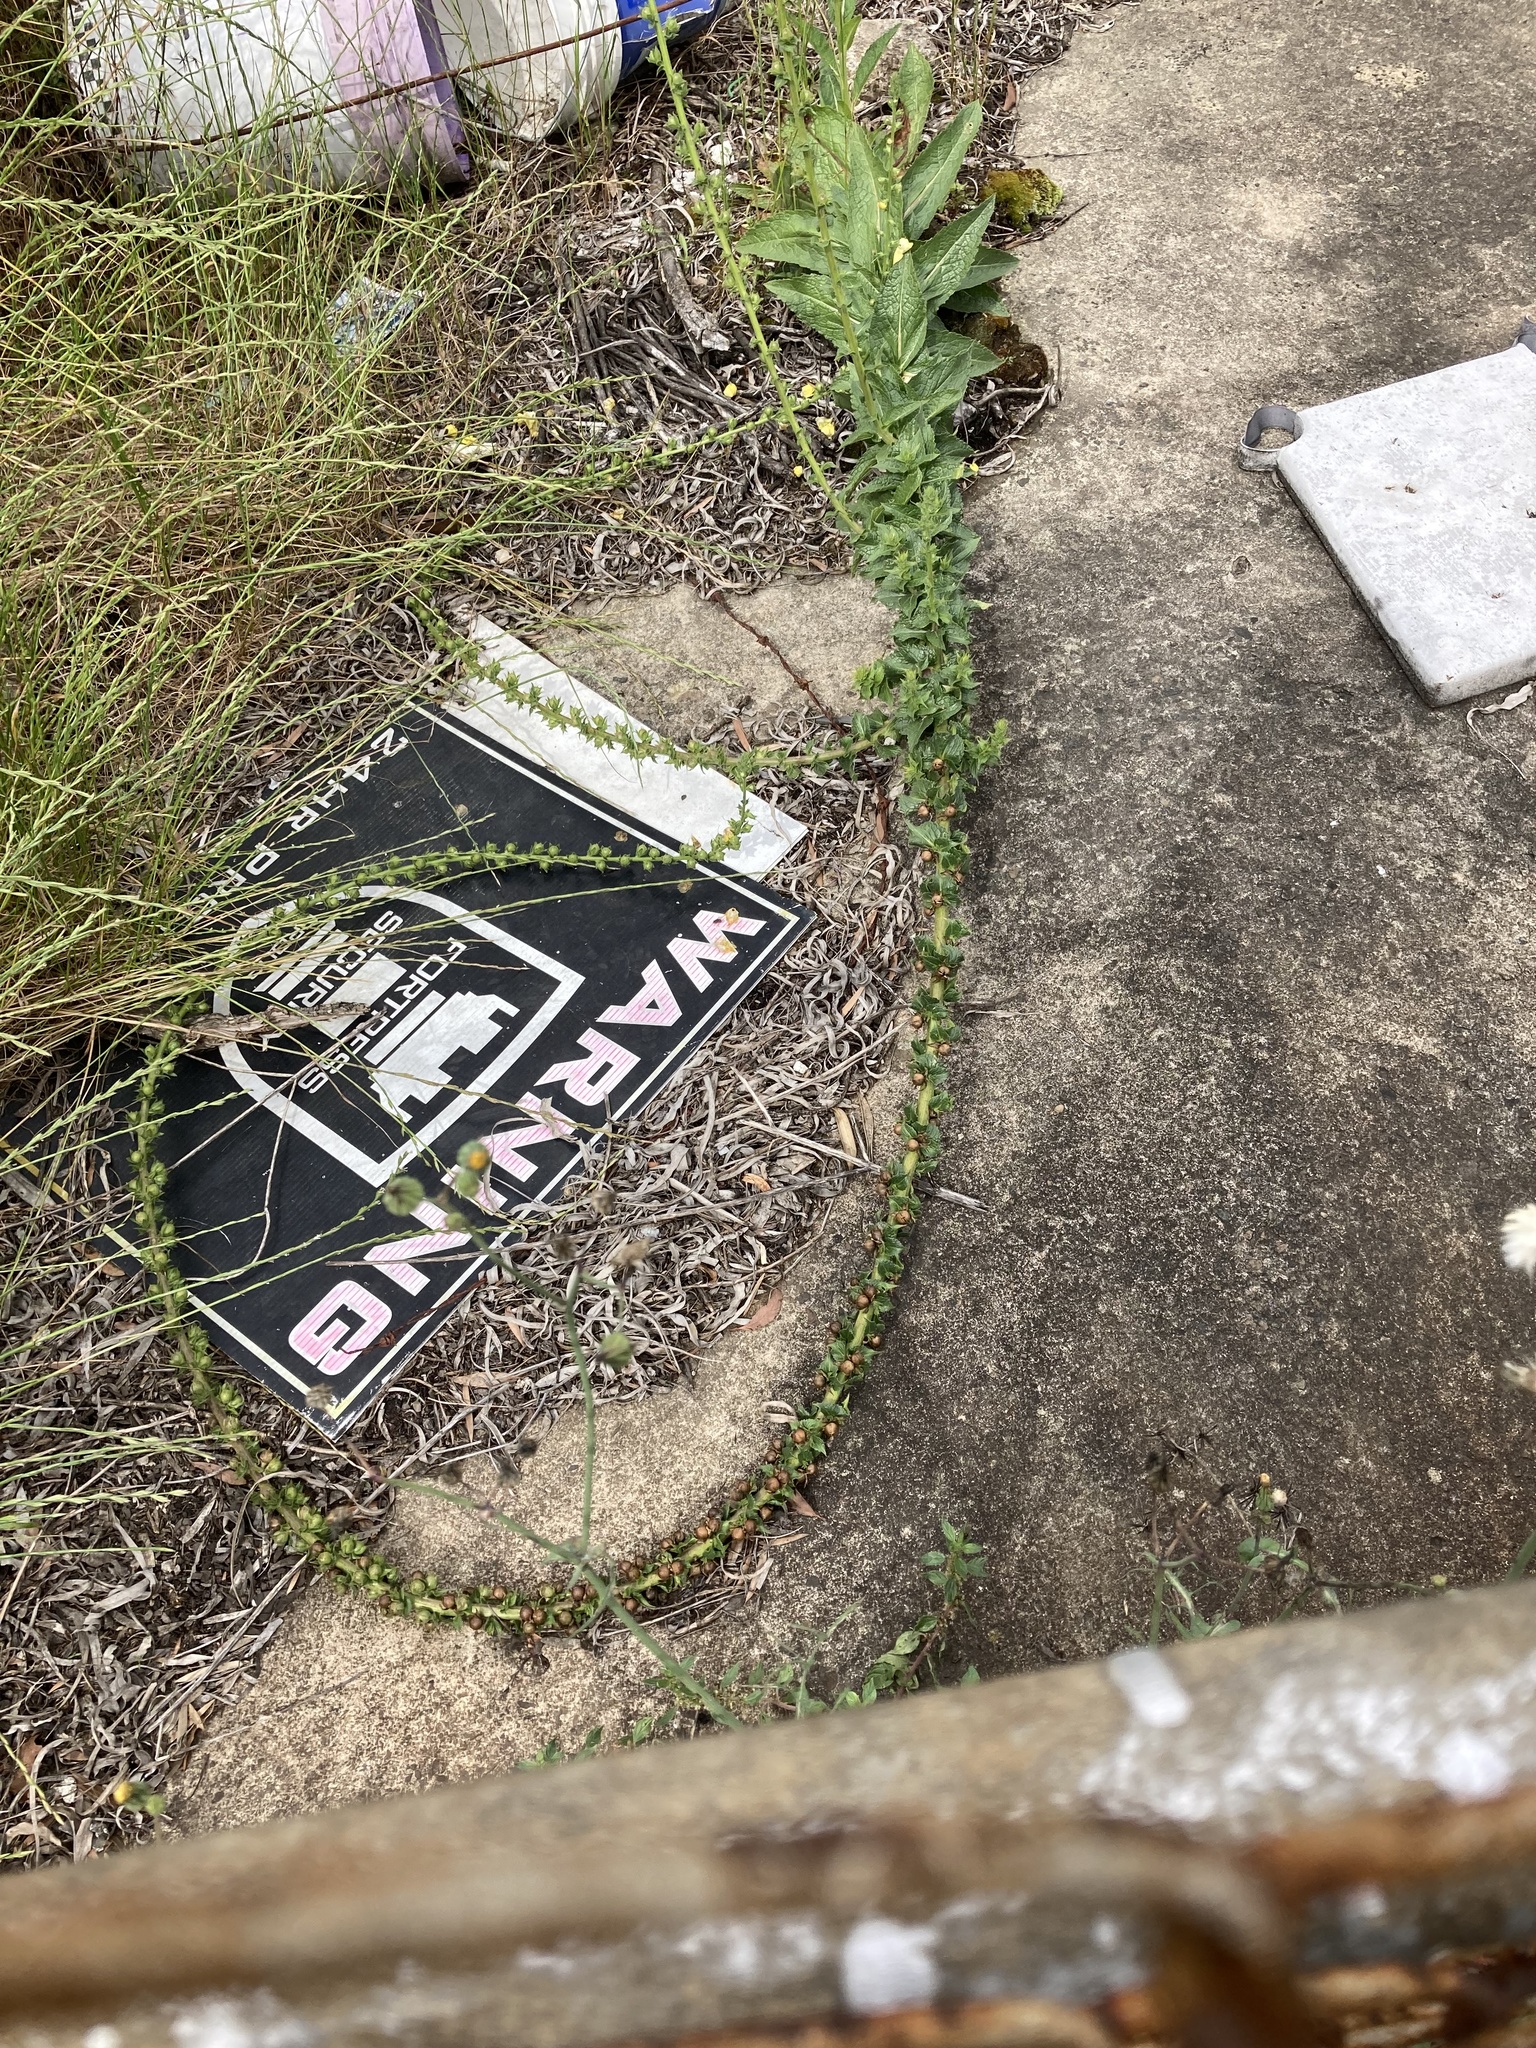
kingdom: Plantae
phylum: Tracheophyta
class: Magnoliopsida
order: Lamiales
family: Scrophulariaceae
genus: Verbascum
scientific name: Verbascum virgatum
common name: Twiggy mullein
